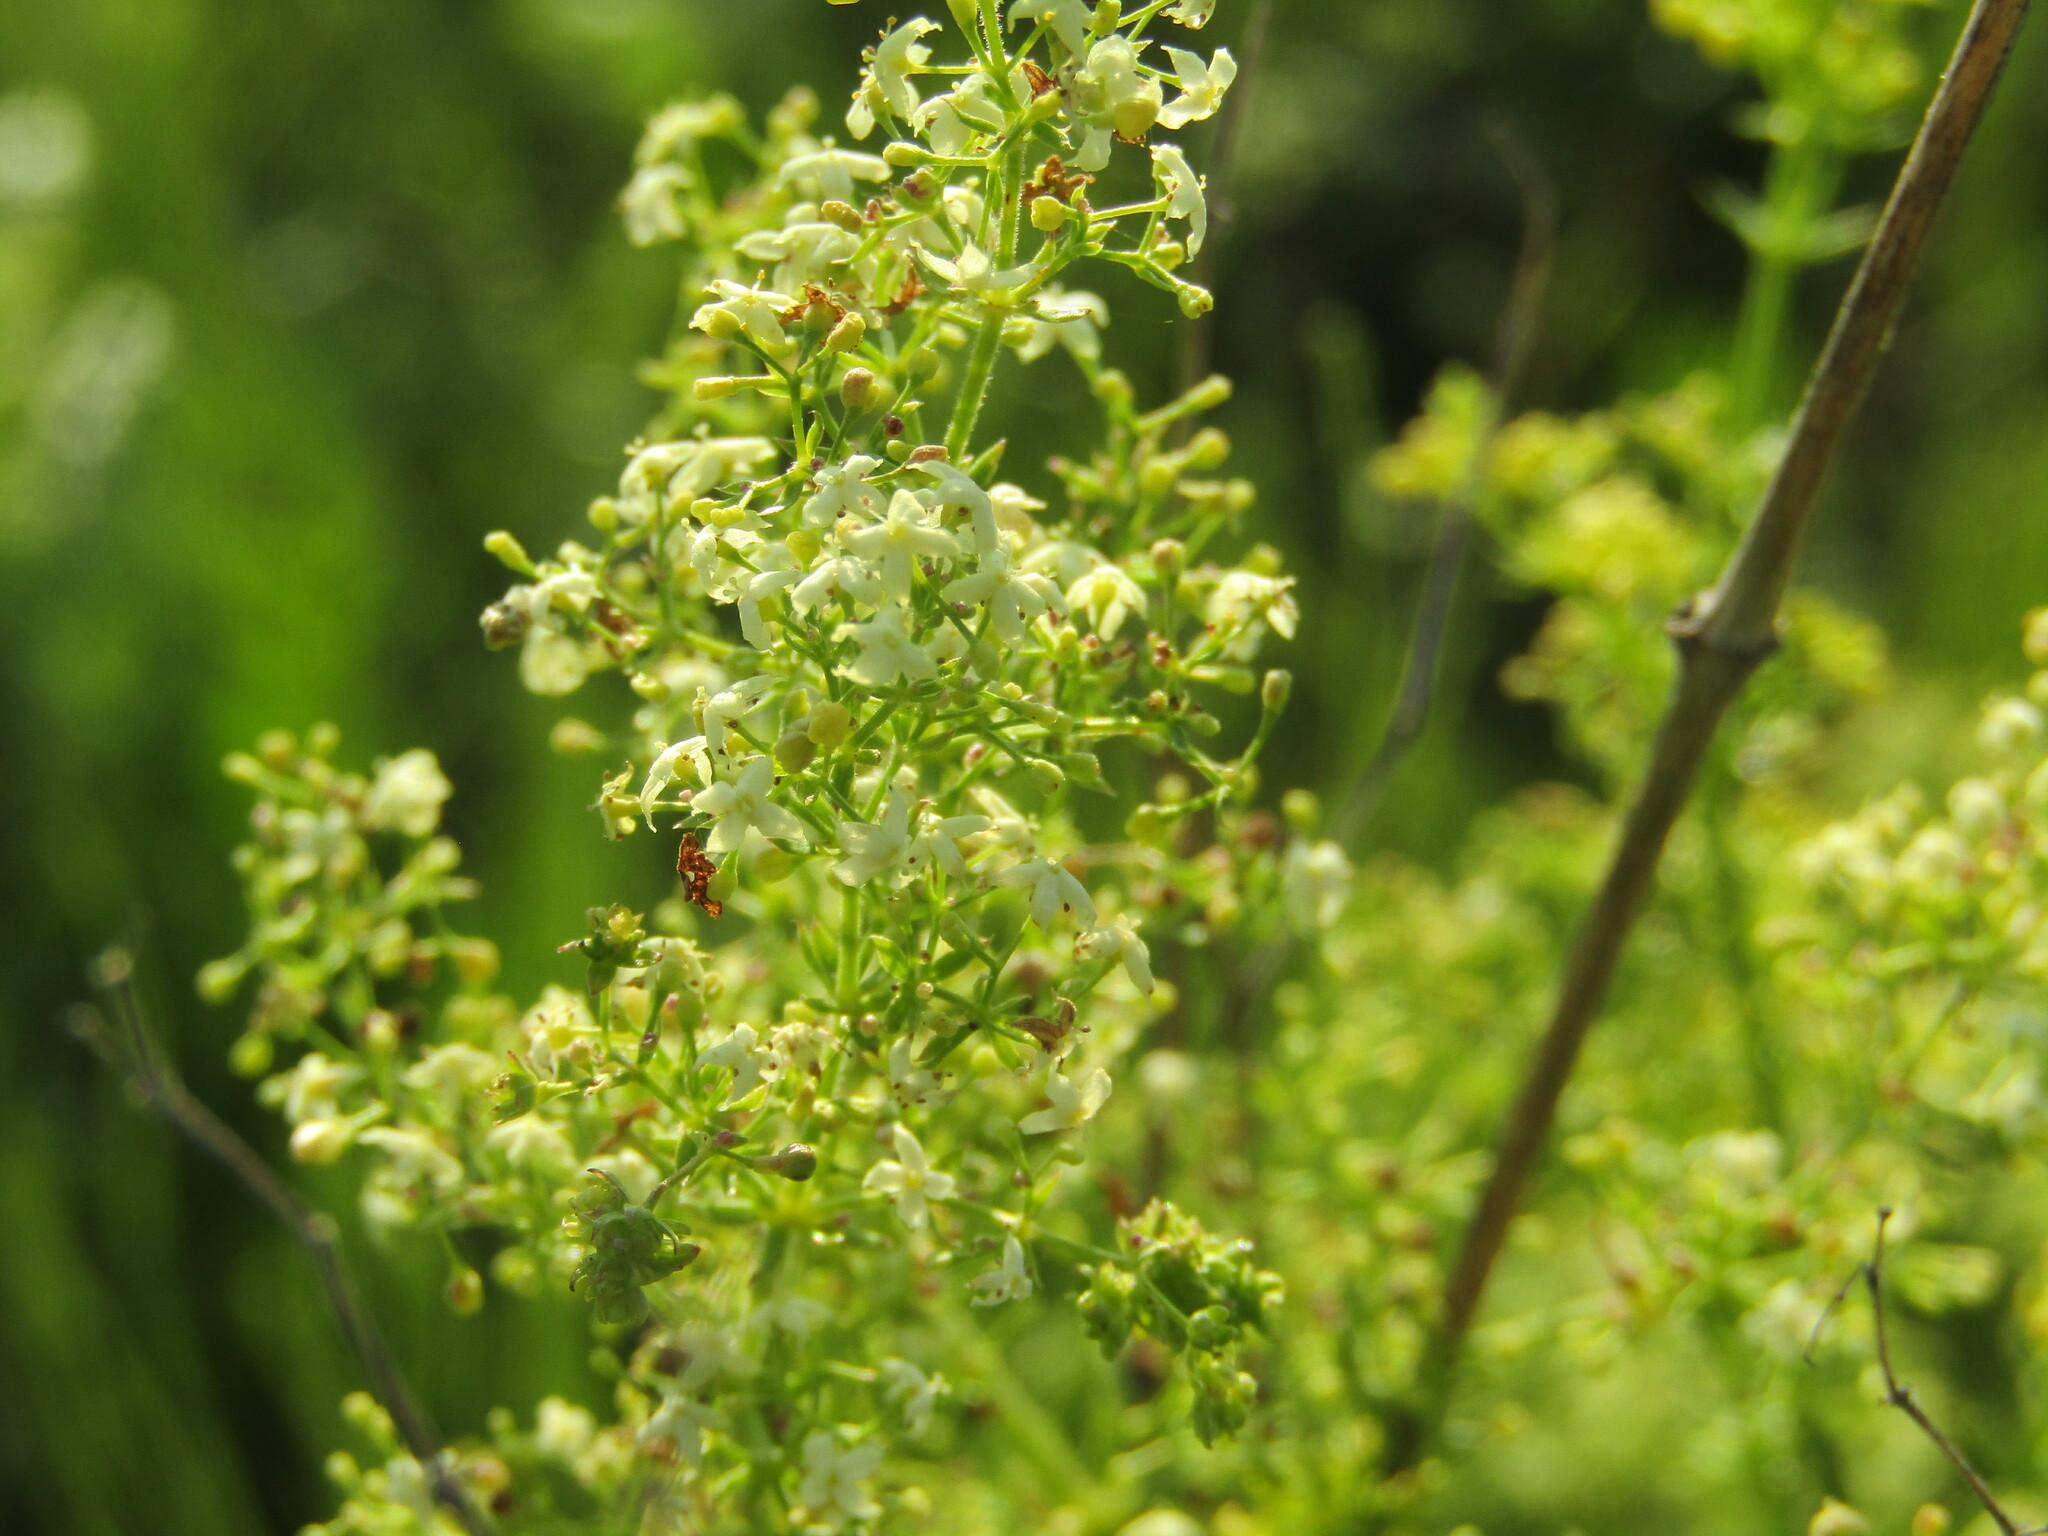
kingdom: Plantae
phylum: Tracheophyta
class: Magnoliopsida
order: Gentianales
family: Rubiaceae
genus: Galium
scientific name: Galium mollugo
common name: Hedge bedstraw
